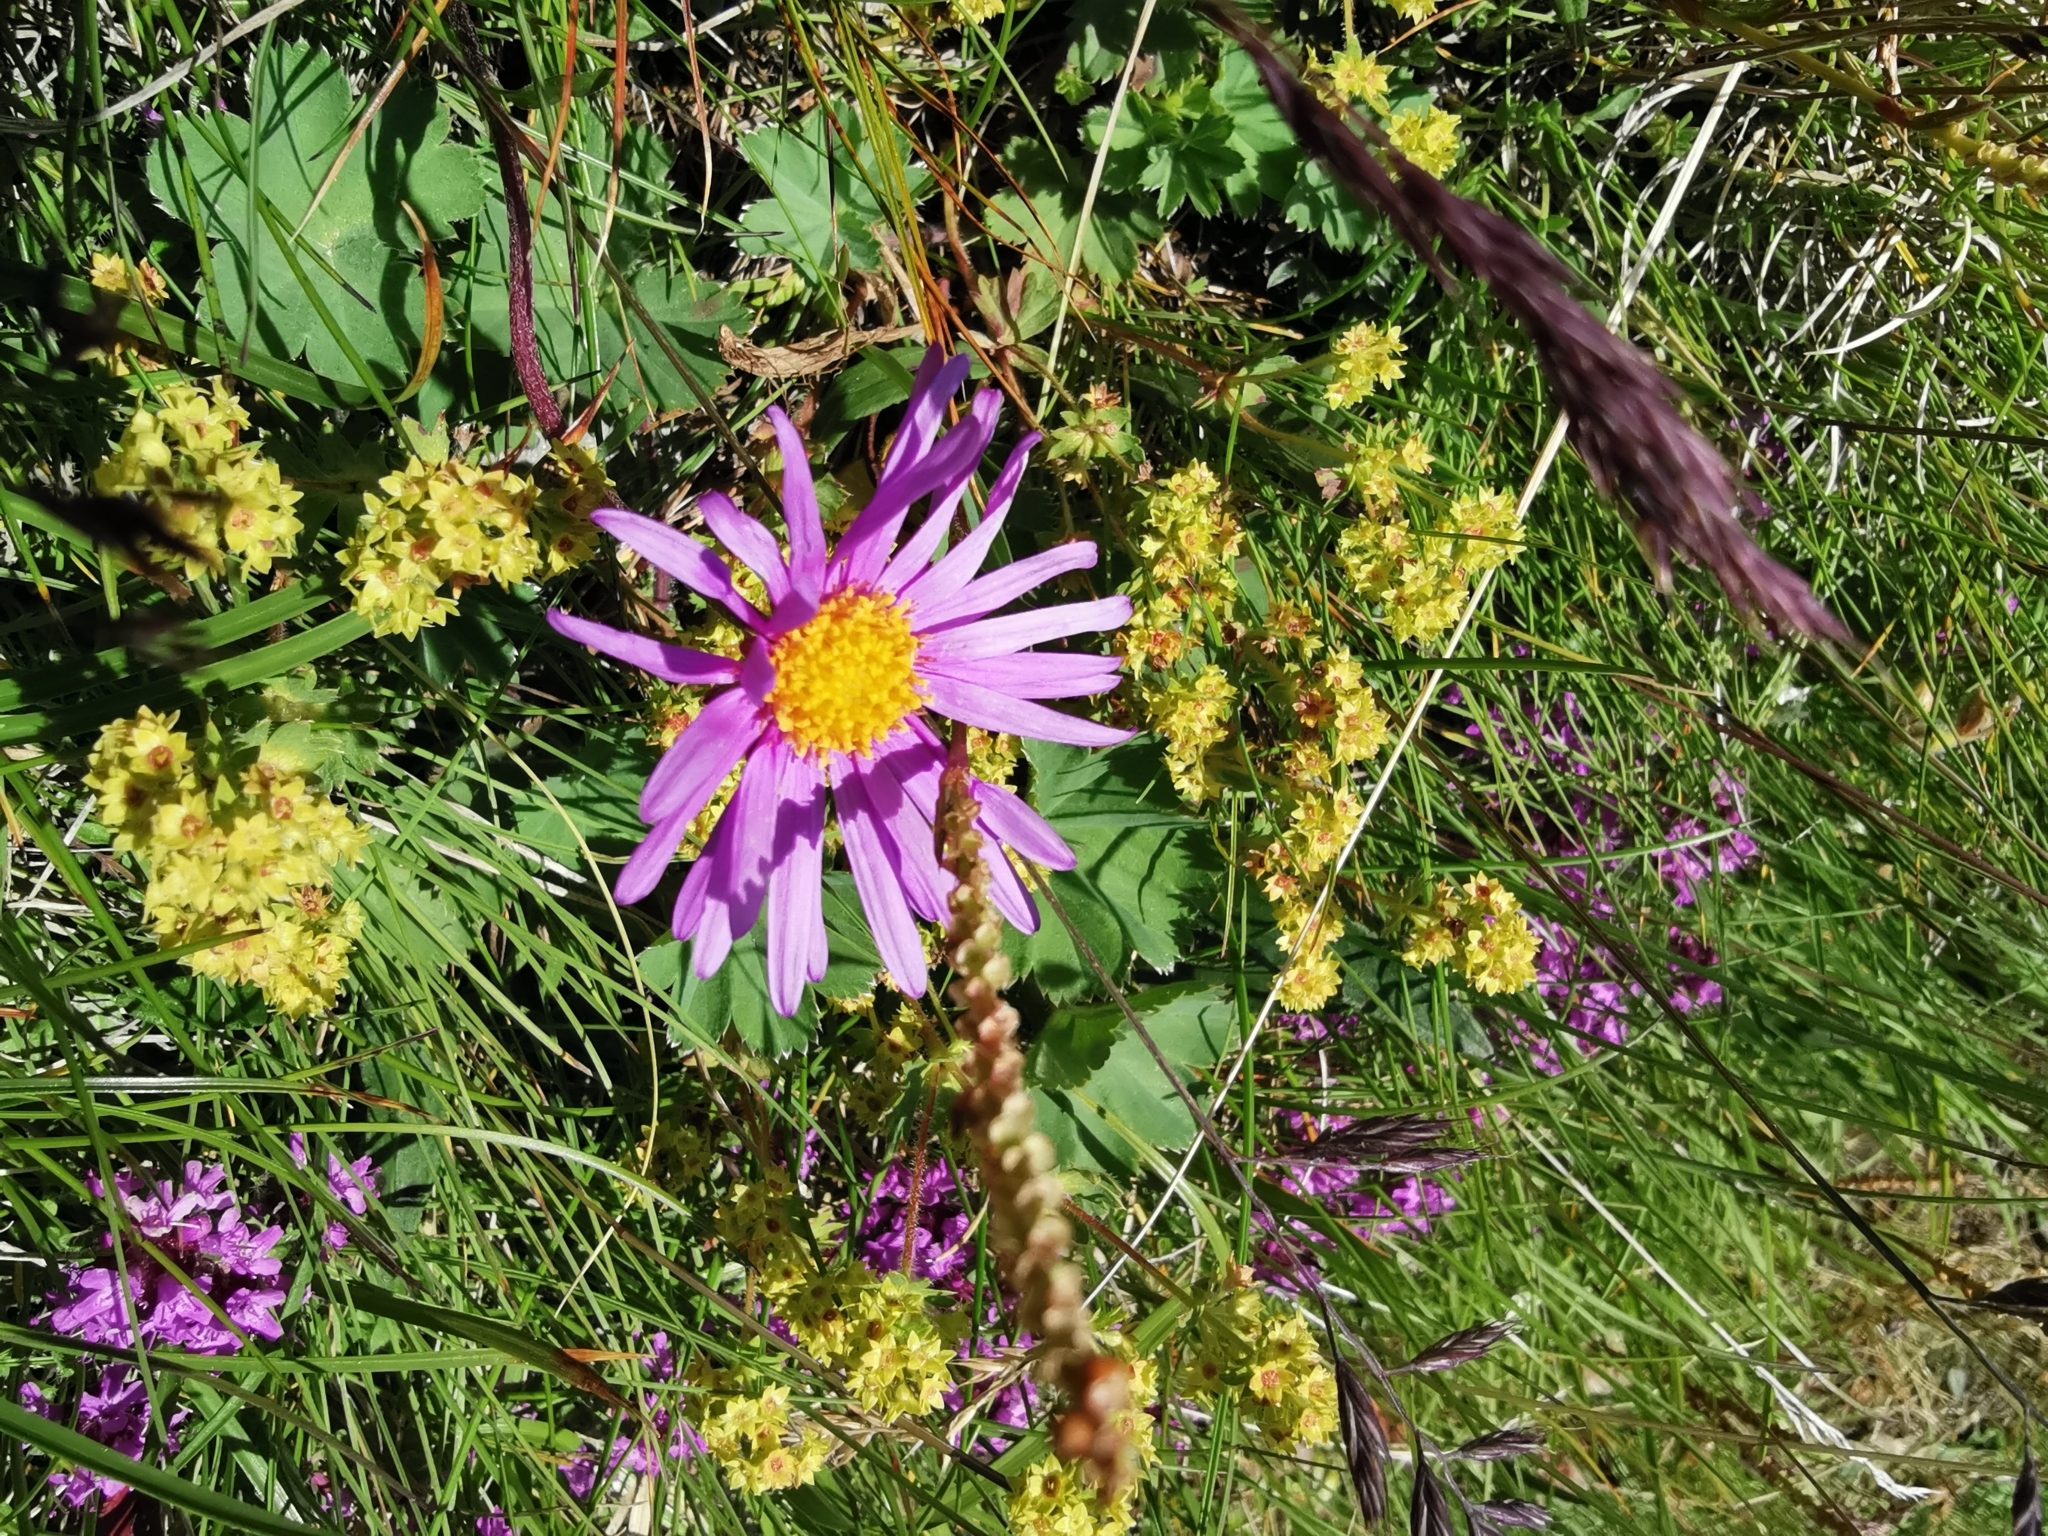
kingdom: Plantae
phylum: Tracheophyta
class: Magnoliopsida
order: Asterales
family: Asteraceae
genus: Aster
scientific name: Aster alpinus
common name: Alpine aster
